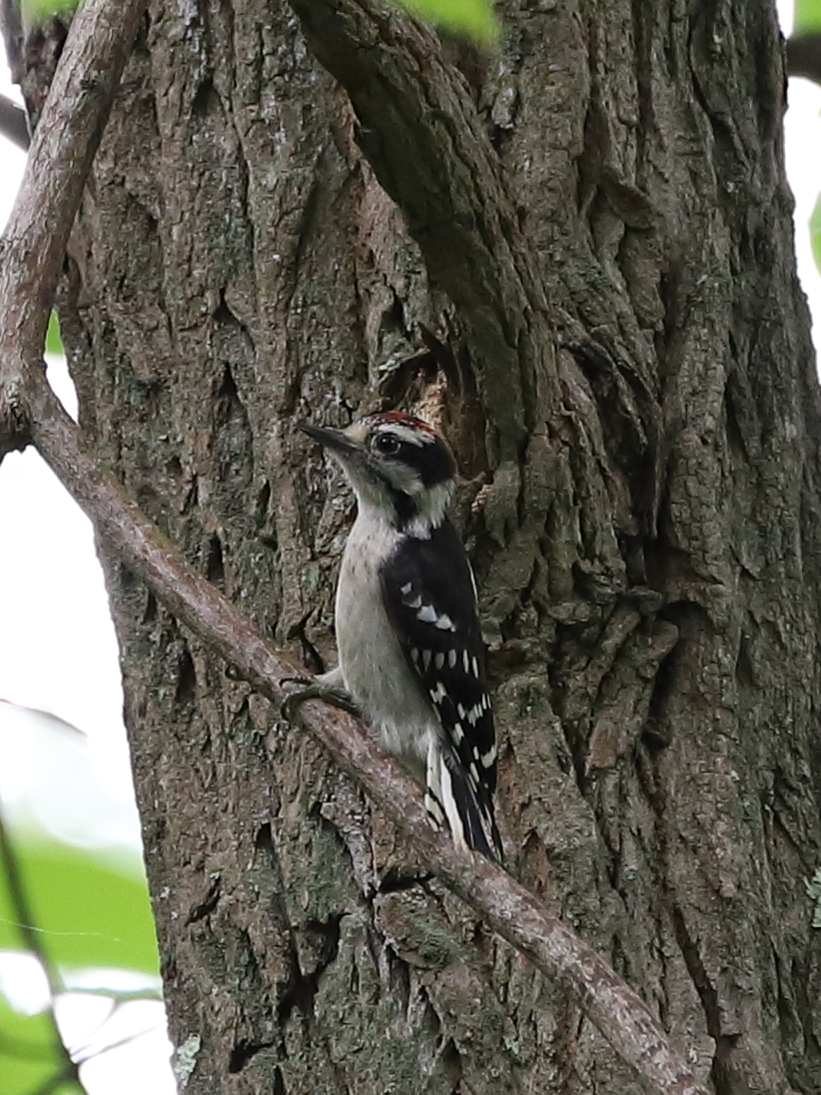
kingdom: Animalia
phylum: Chordata
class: Aves
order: Piciformes
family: Picidae
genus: Dryobates
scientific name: Dryobates pubescens
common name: Downy woodpecker
